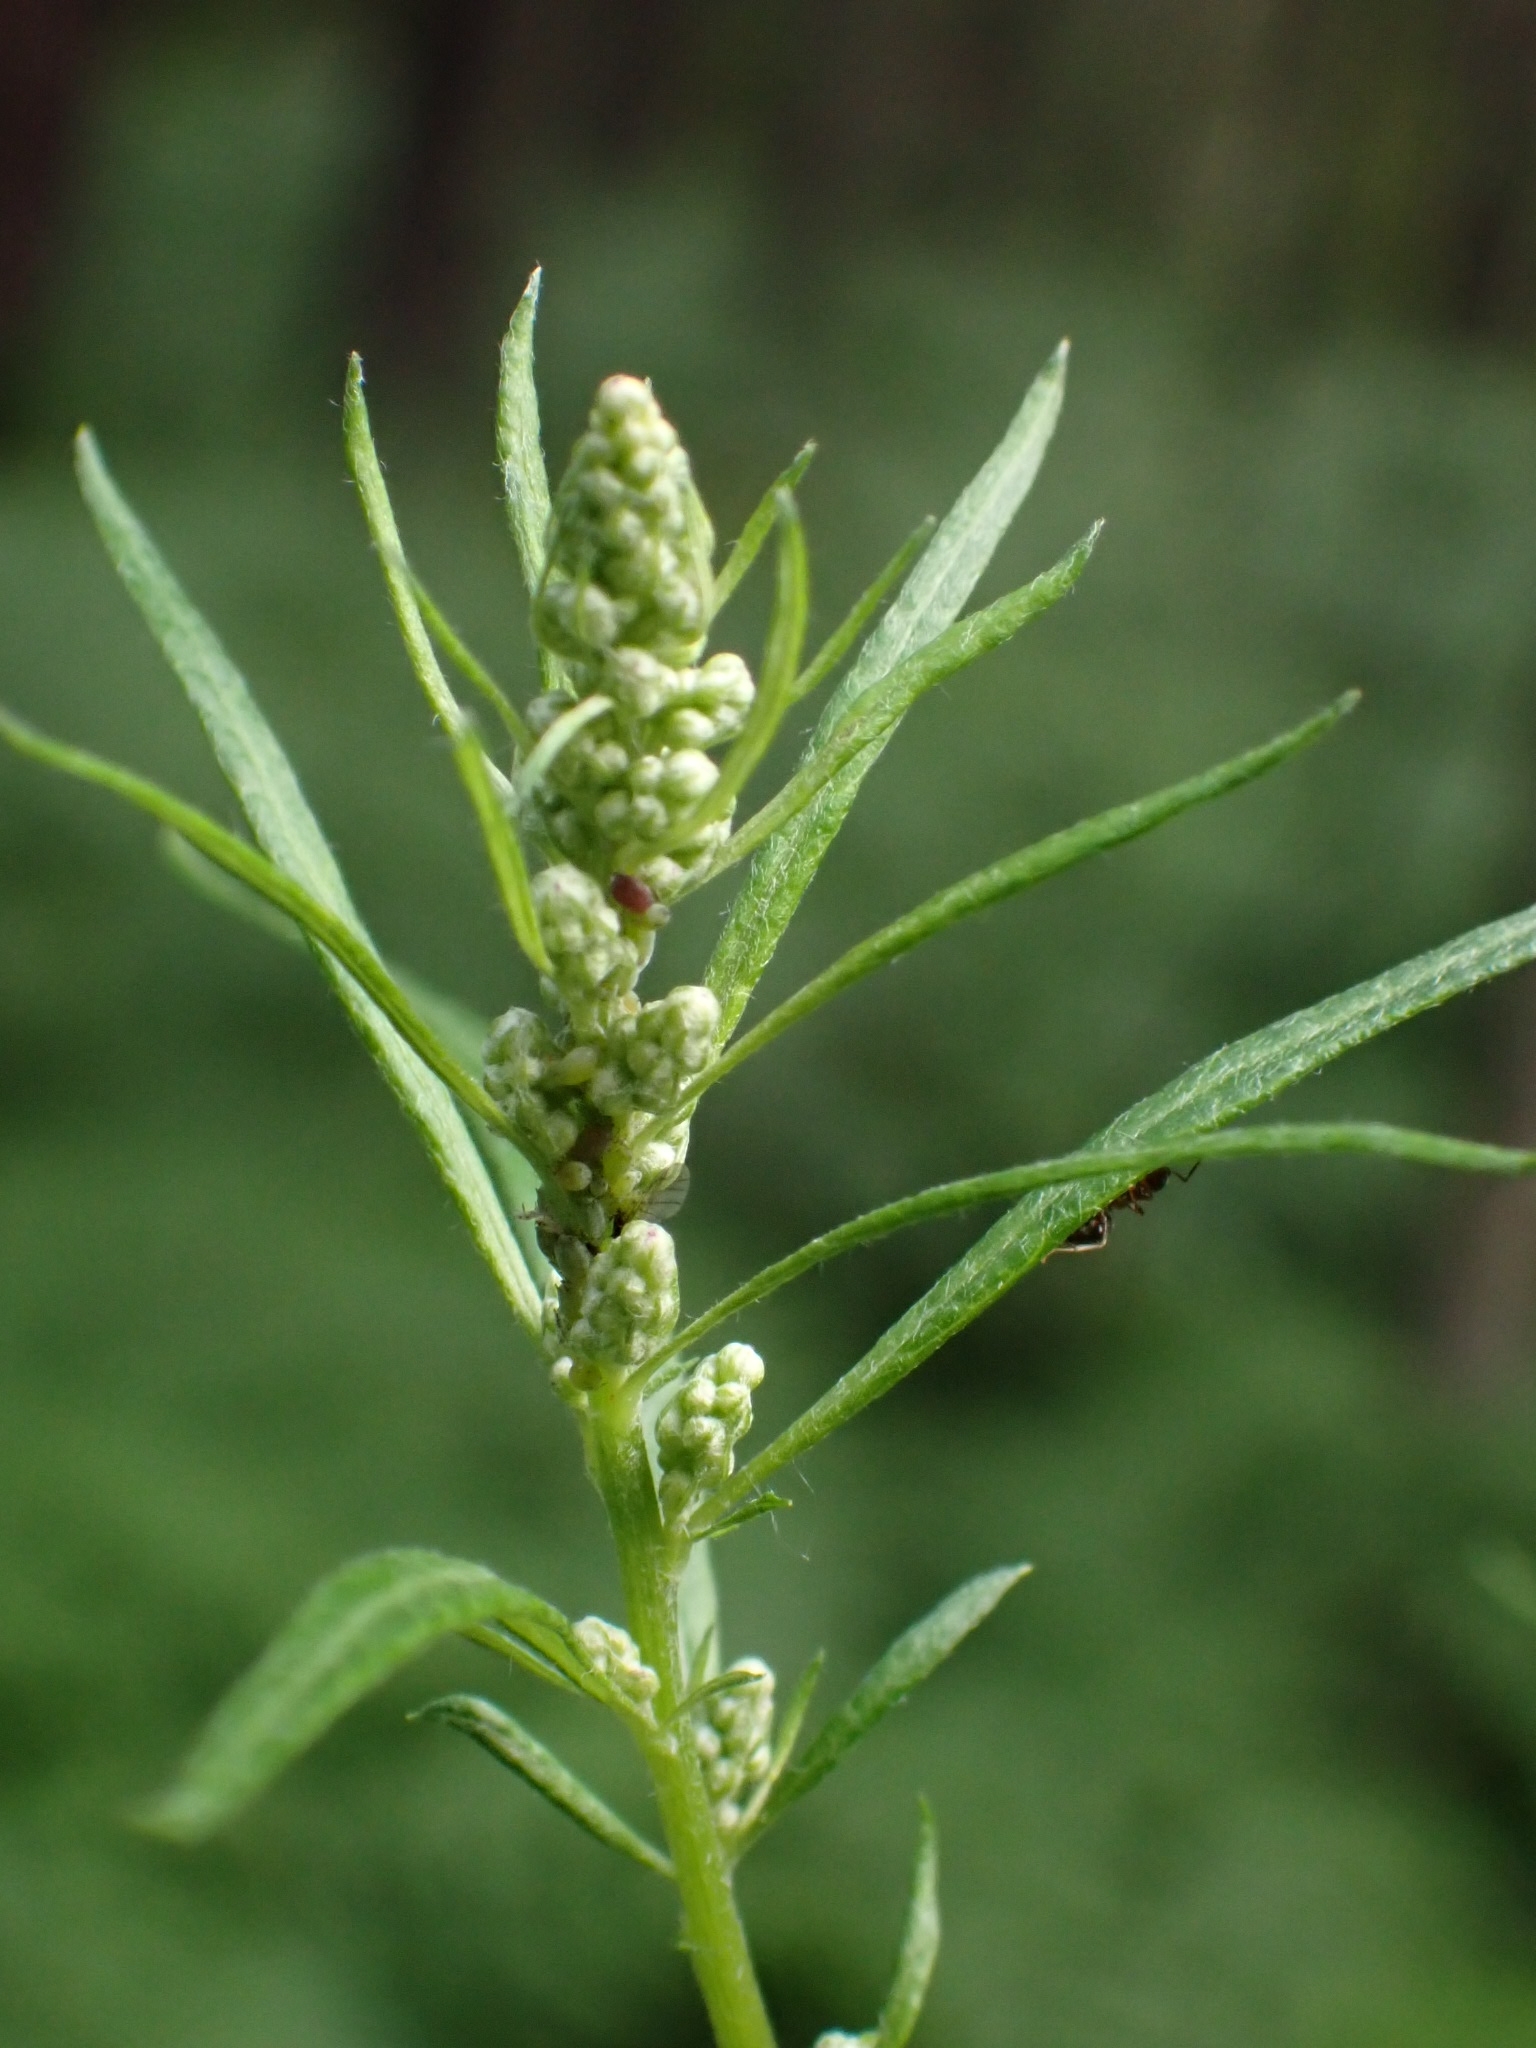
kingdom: Plantae
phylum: Tracheophyta
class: Magnoliopsida
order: Asterales
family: Asteraceae
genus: Artemisia
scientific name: Artemisia vulgaris
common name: Mugwort
